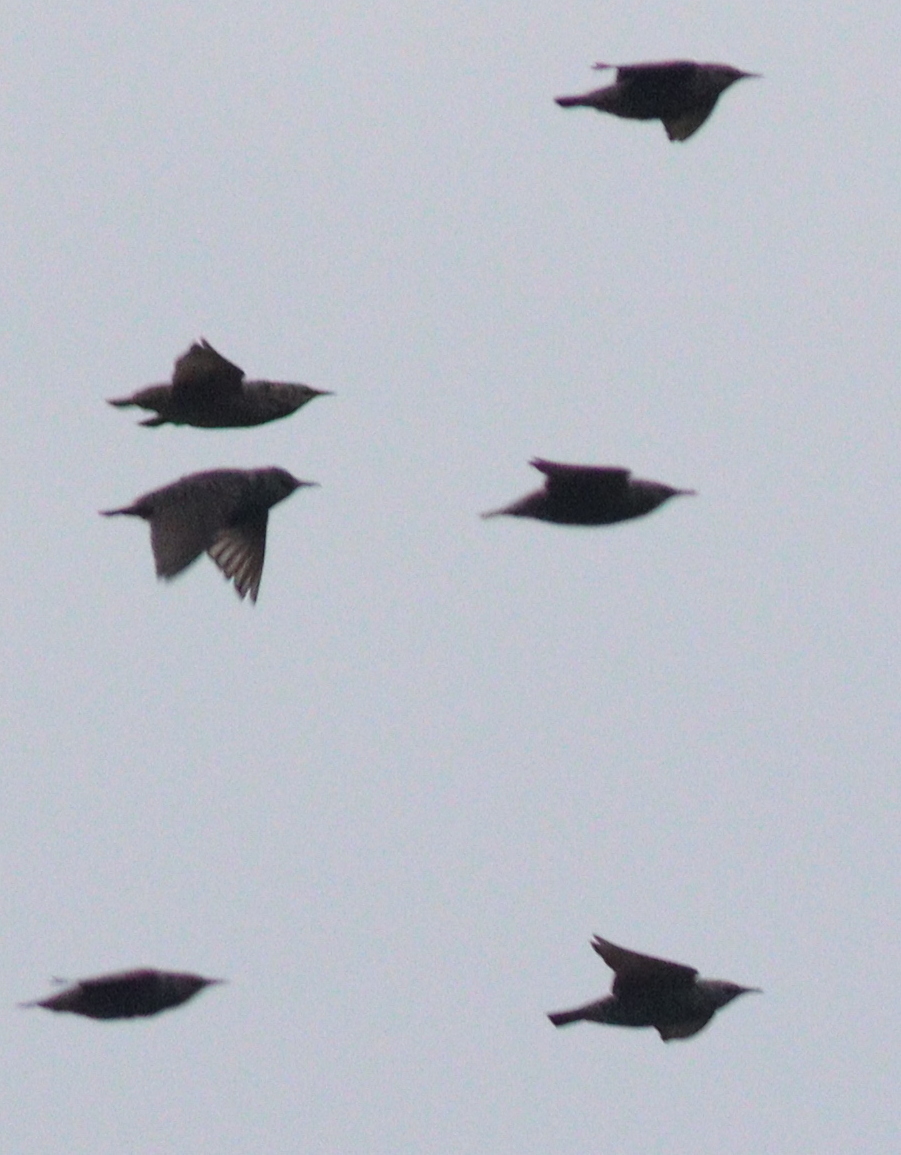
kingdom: Animalia
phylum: Chordata
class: Aves
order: Passeriformes
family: Sturnidae
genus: Sturnus
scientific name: Sturnus vulgaris
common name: Common starling
